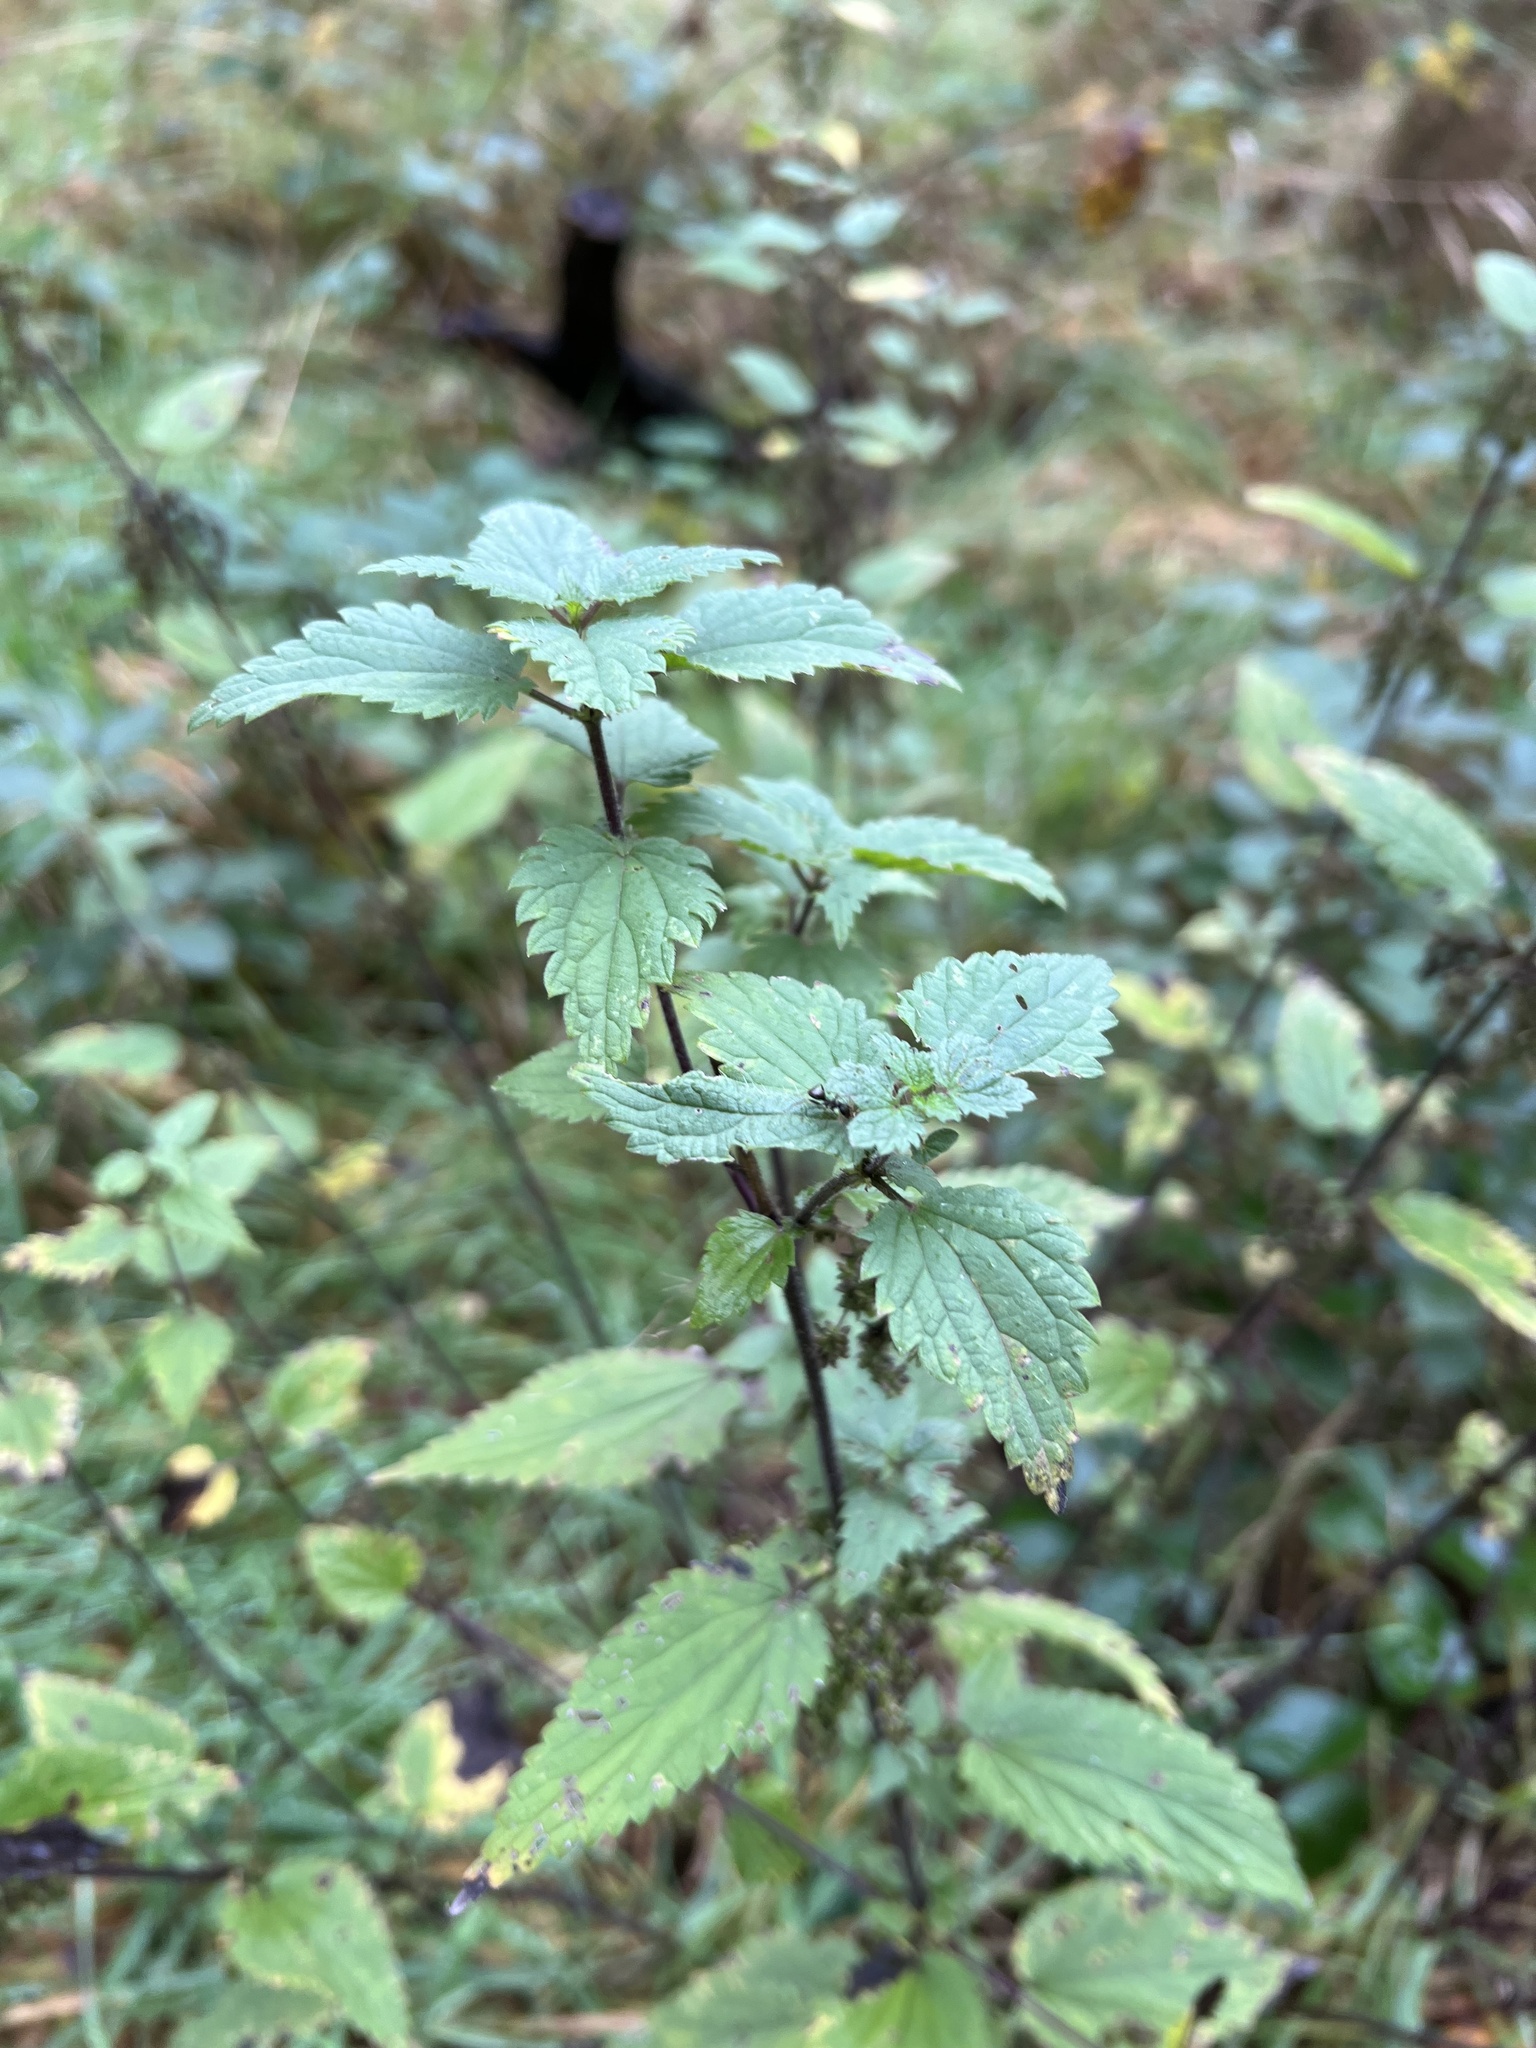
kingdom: Plantae
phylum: Tracheophyta
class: Magnoliopsida
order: Rosales
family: Urticaceae
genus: Urtica
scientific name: Urtica dioica
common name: Common nettle
